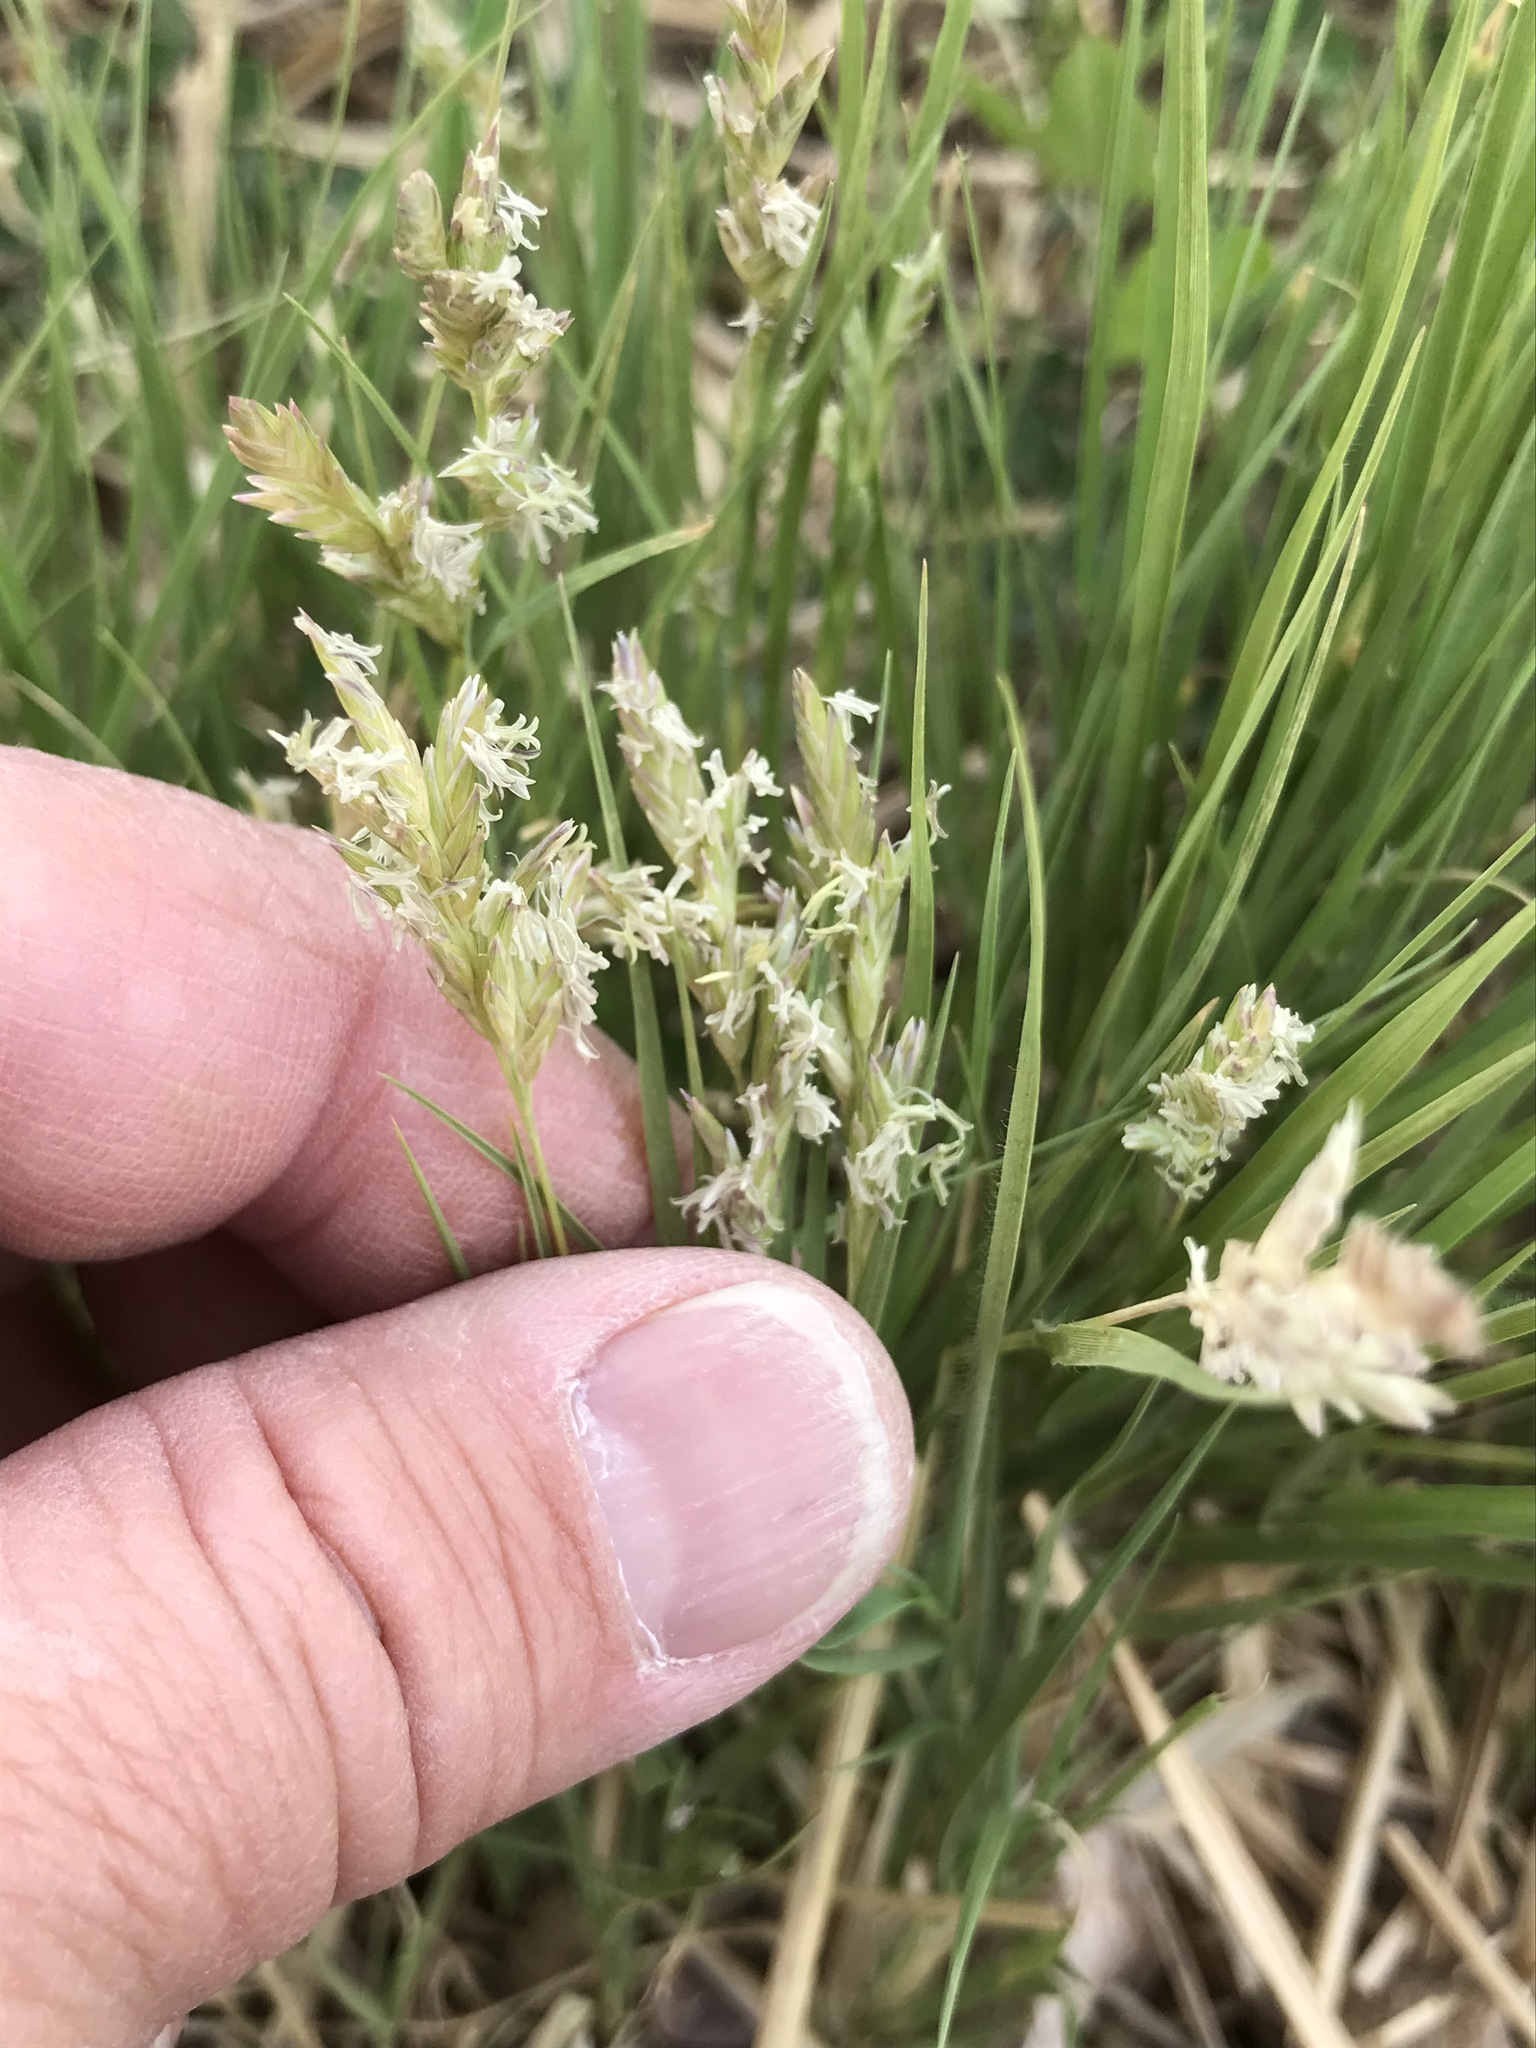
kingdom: Plantae
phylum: Tracheophyta
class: Liliopsida
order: Poales
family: Poaceae
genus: Distichlis
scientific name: Distichlis spicata
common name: Saltgrass
